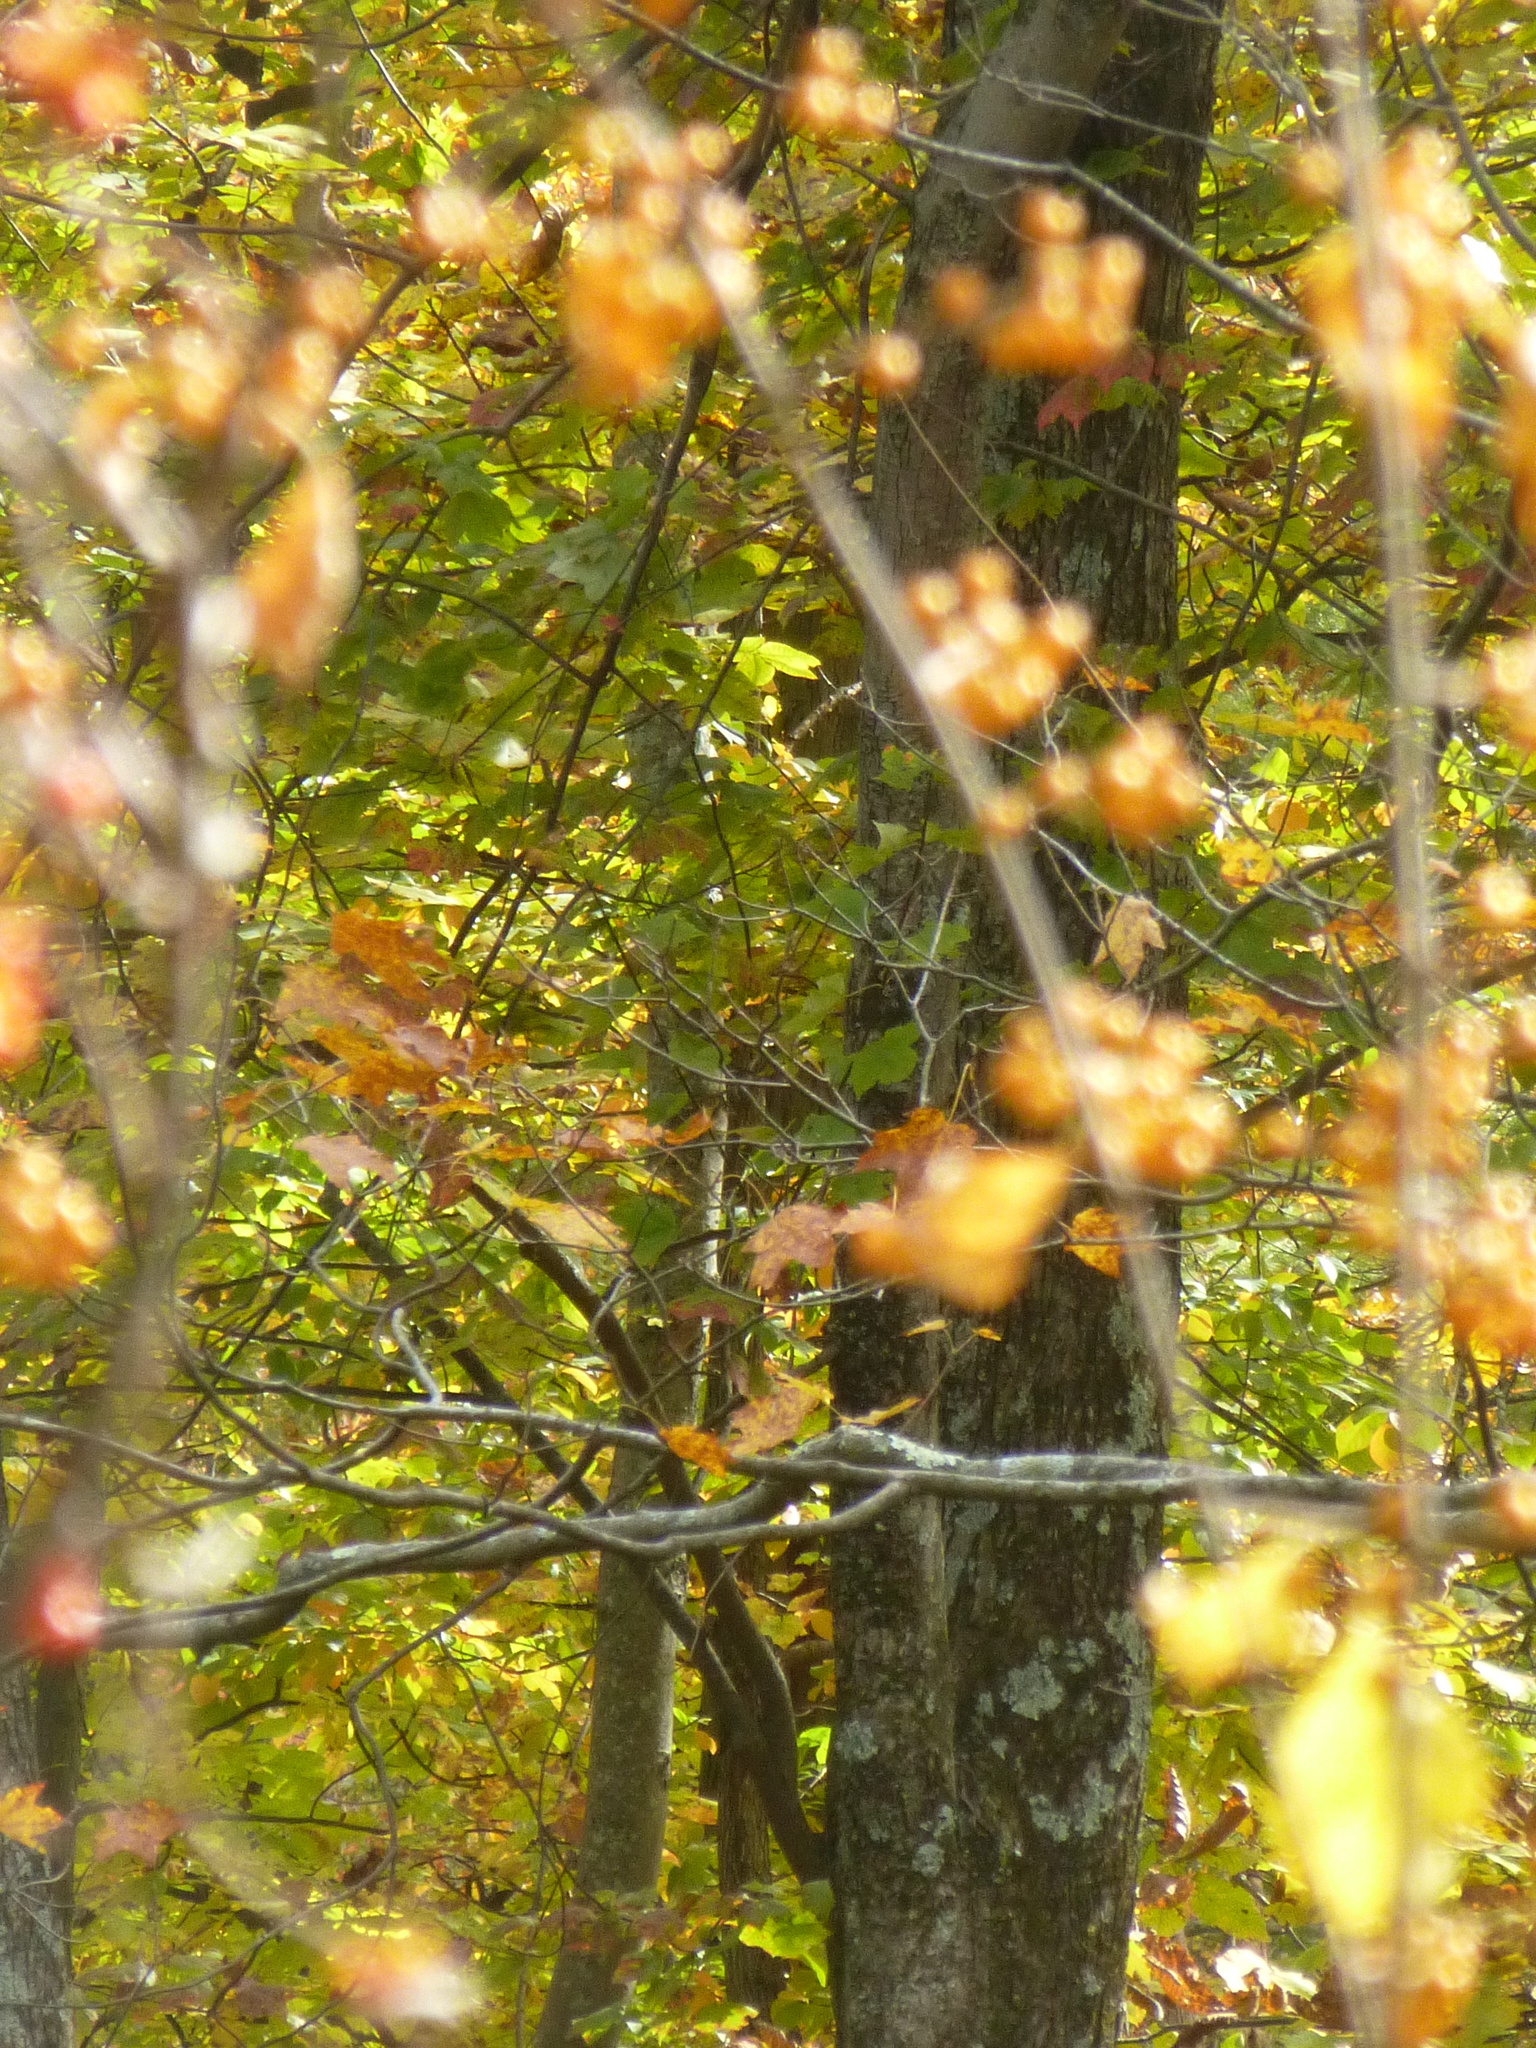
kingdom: Plantae
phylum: Tracheophyta
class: Magnoliopsida
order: Celastrales
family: Celastraceae
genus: Celastrus
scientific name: Celastrus orbiculatus
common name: Oriental bittersweet
